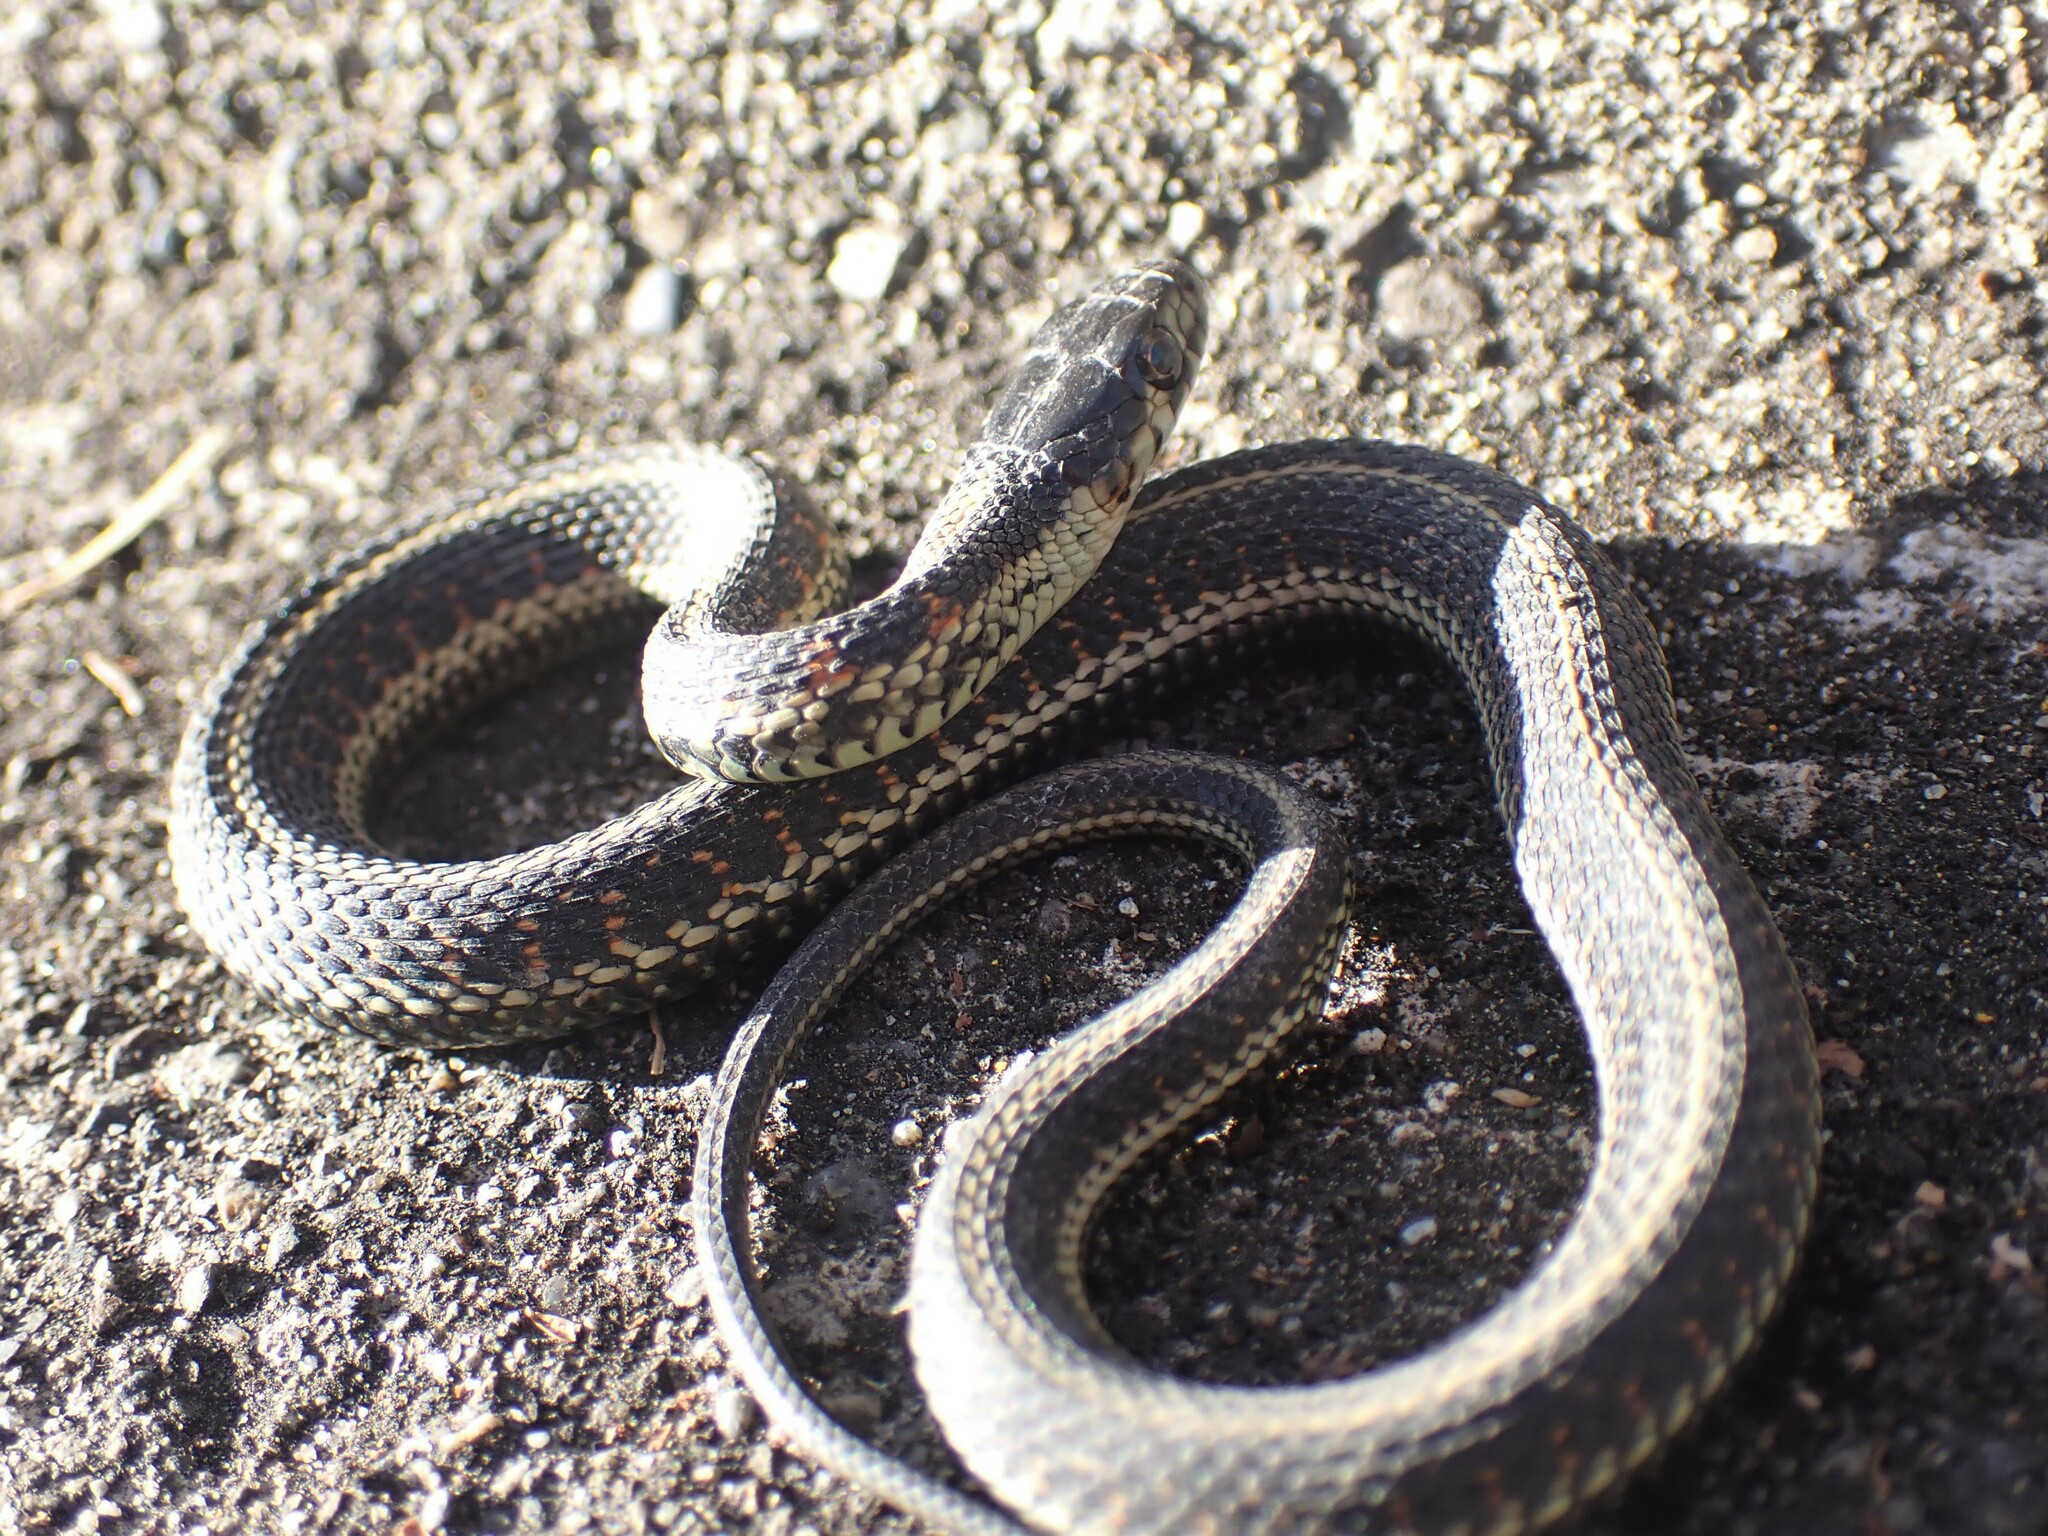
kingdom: Animalia
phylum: Chordata
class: Squamata
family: Colubridae
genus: Thamnophis
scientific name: Thamnophis sirtalis
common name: Common garter snake
